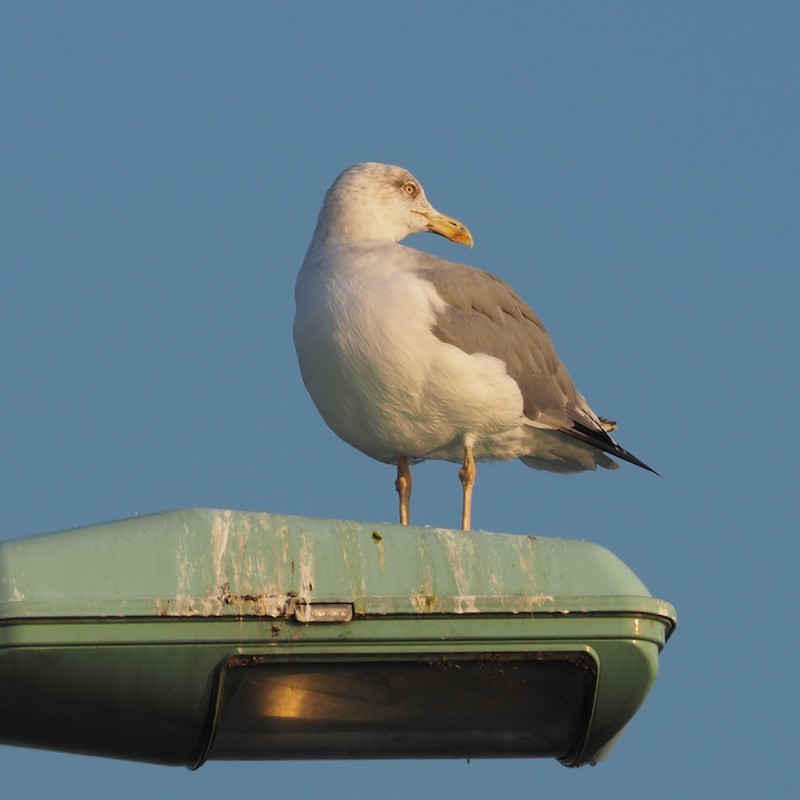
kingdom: Animalia
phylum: Chordata
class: Aves
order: Charadriiformes
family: Laridae
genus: Larus
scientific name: Larus michahellis
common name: Yellow-legged gull
